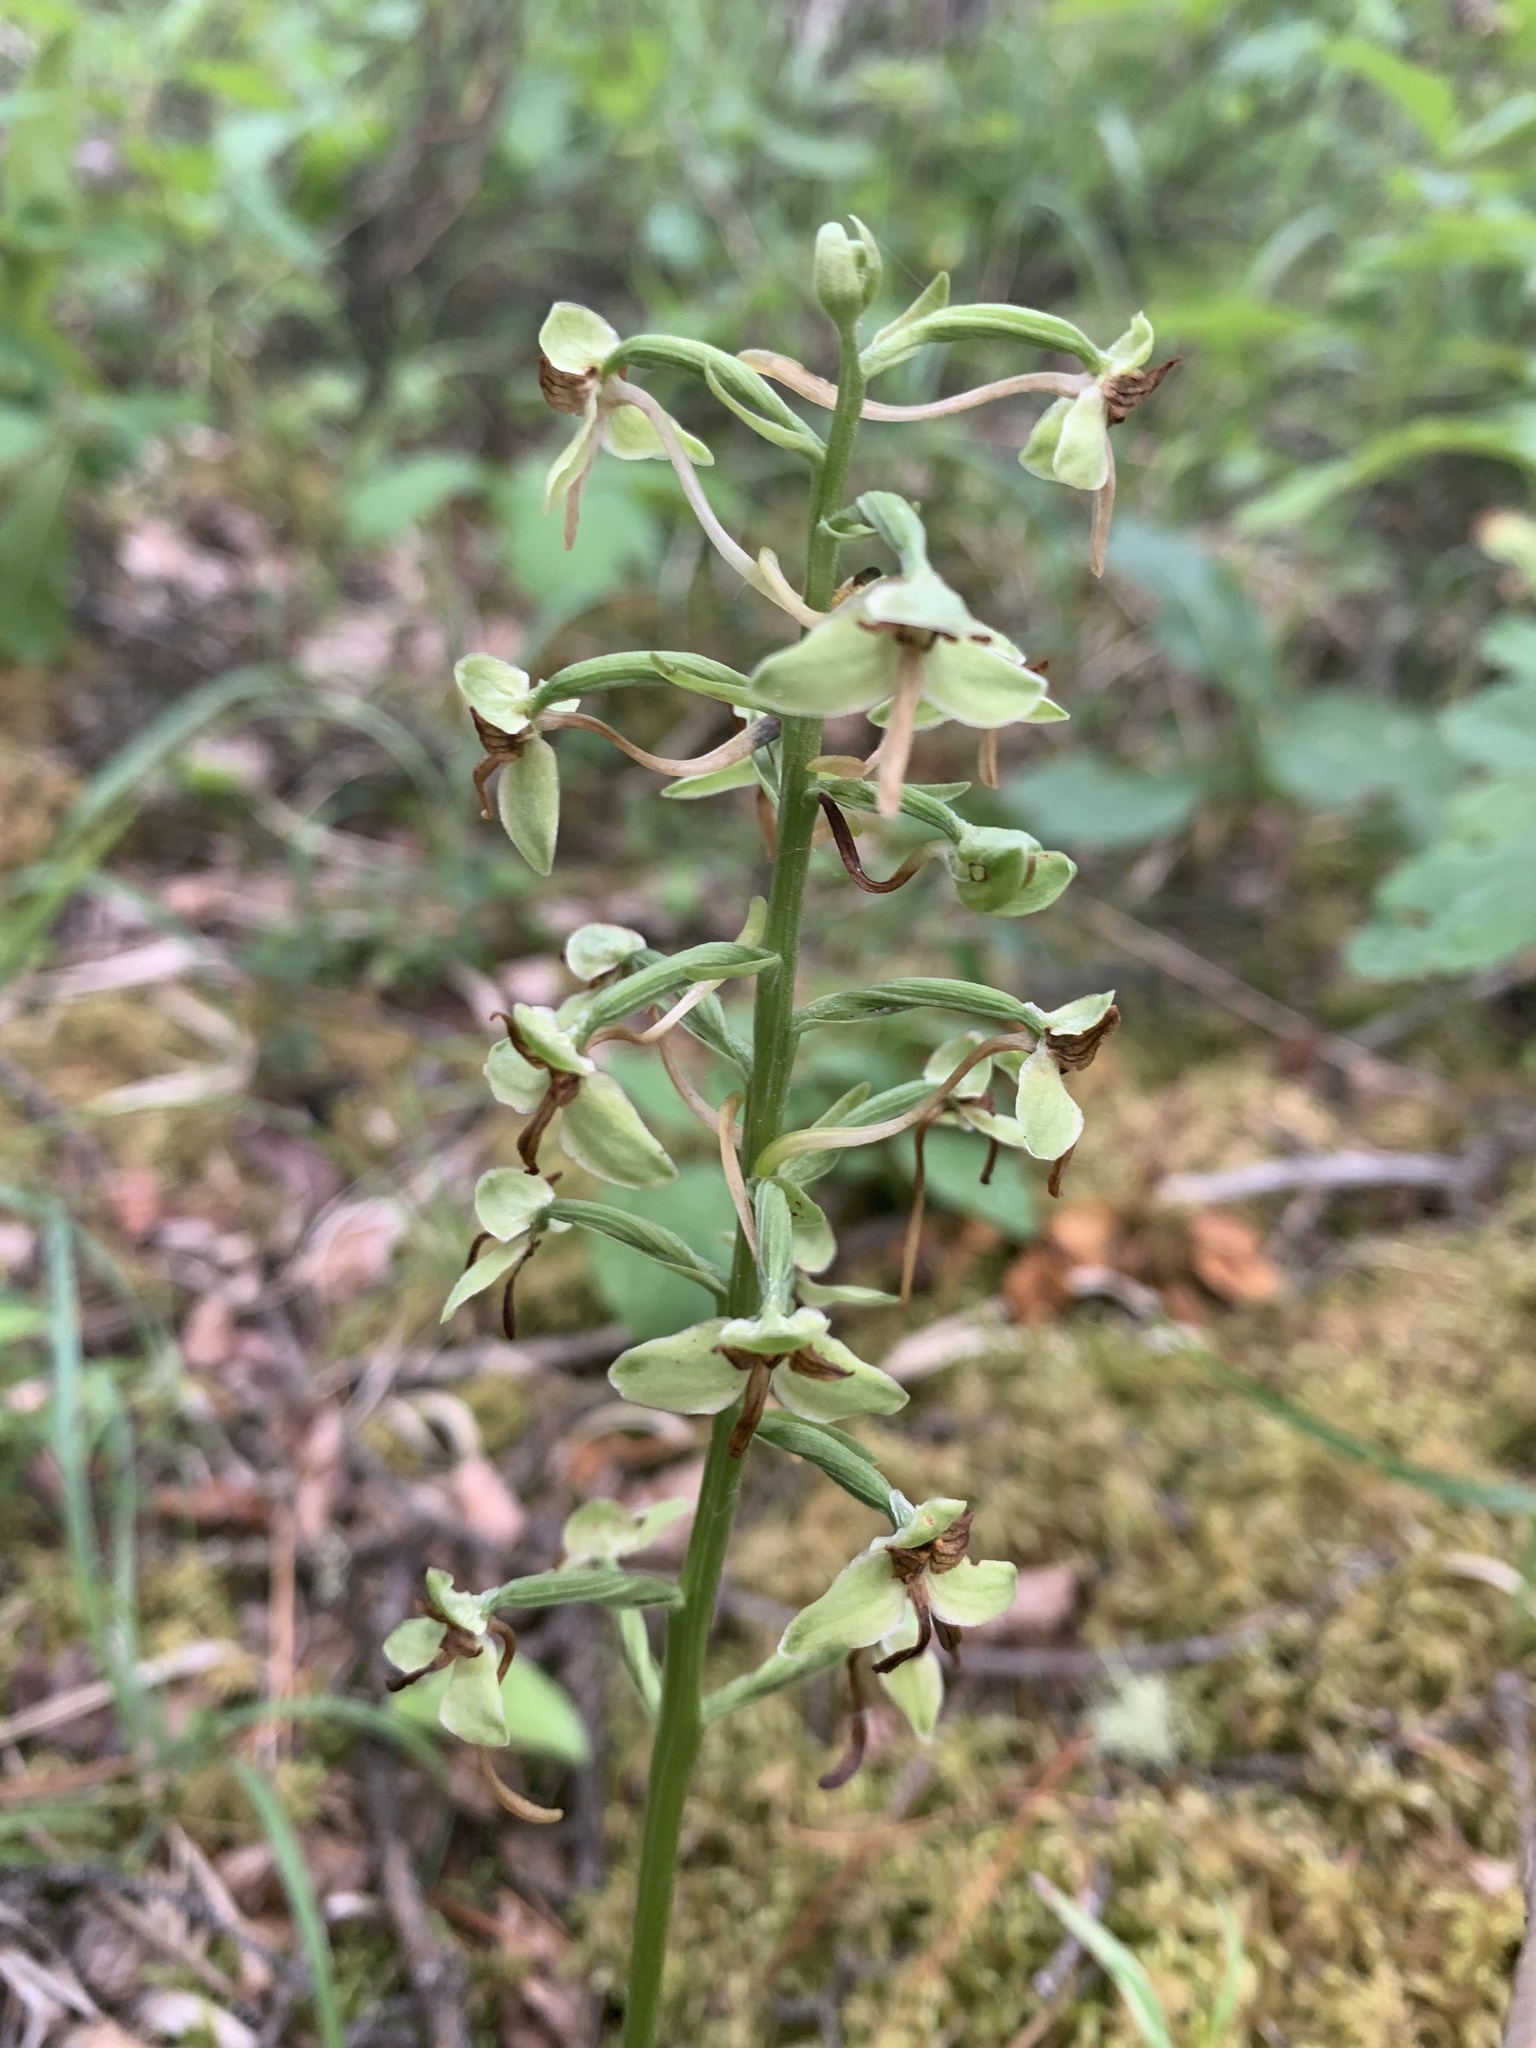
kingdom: Plantae
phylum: Tracheophyta
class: Liliopsida
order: Asparagales
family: Orchidaceae
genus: Platanthera
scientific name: Platanthera orbiculata
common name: Large round-leaved orchid
